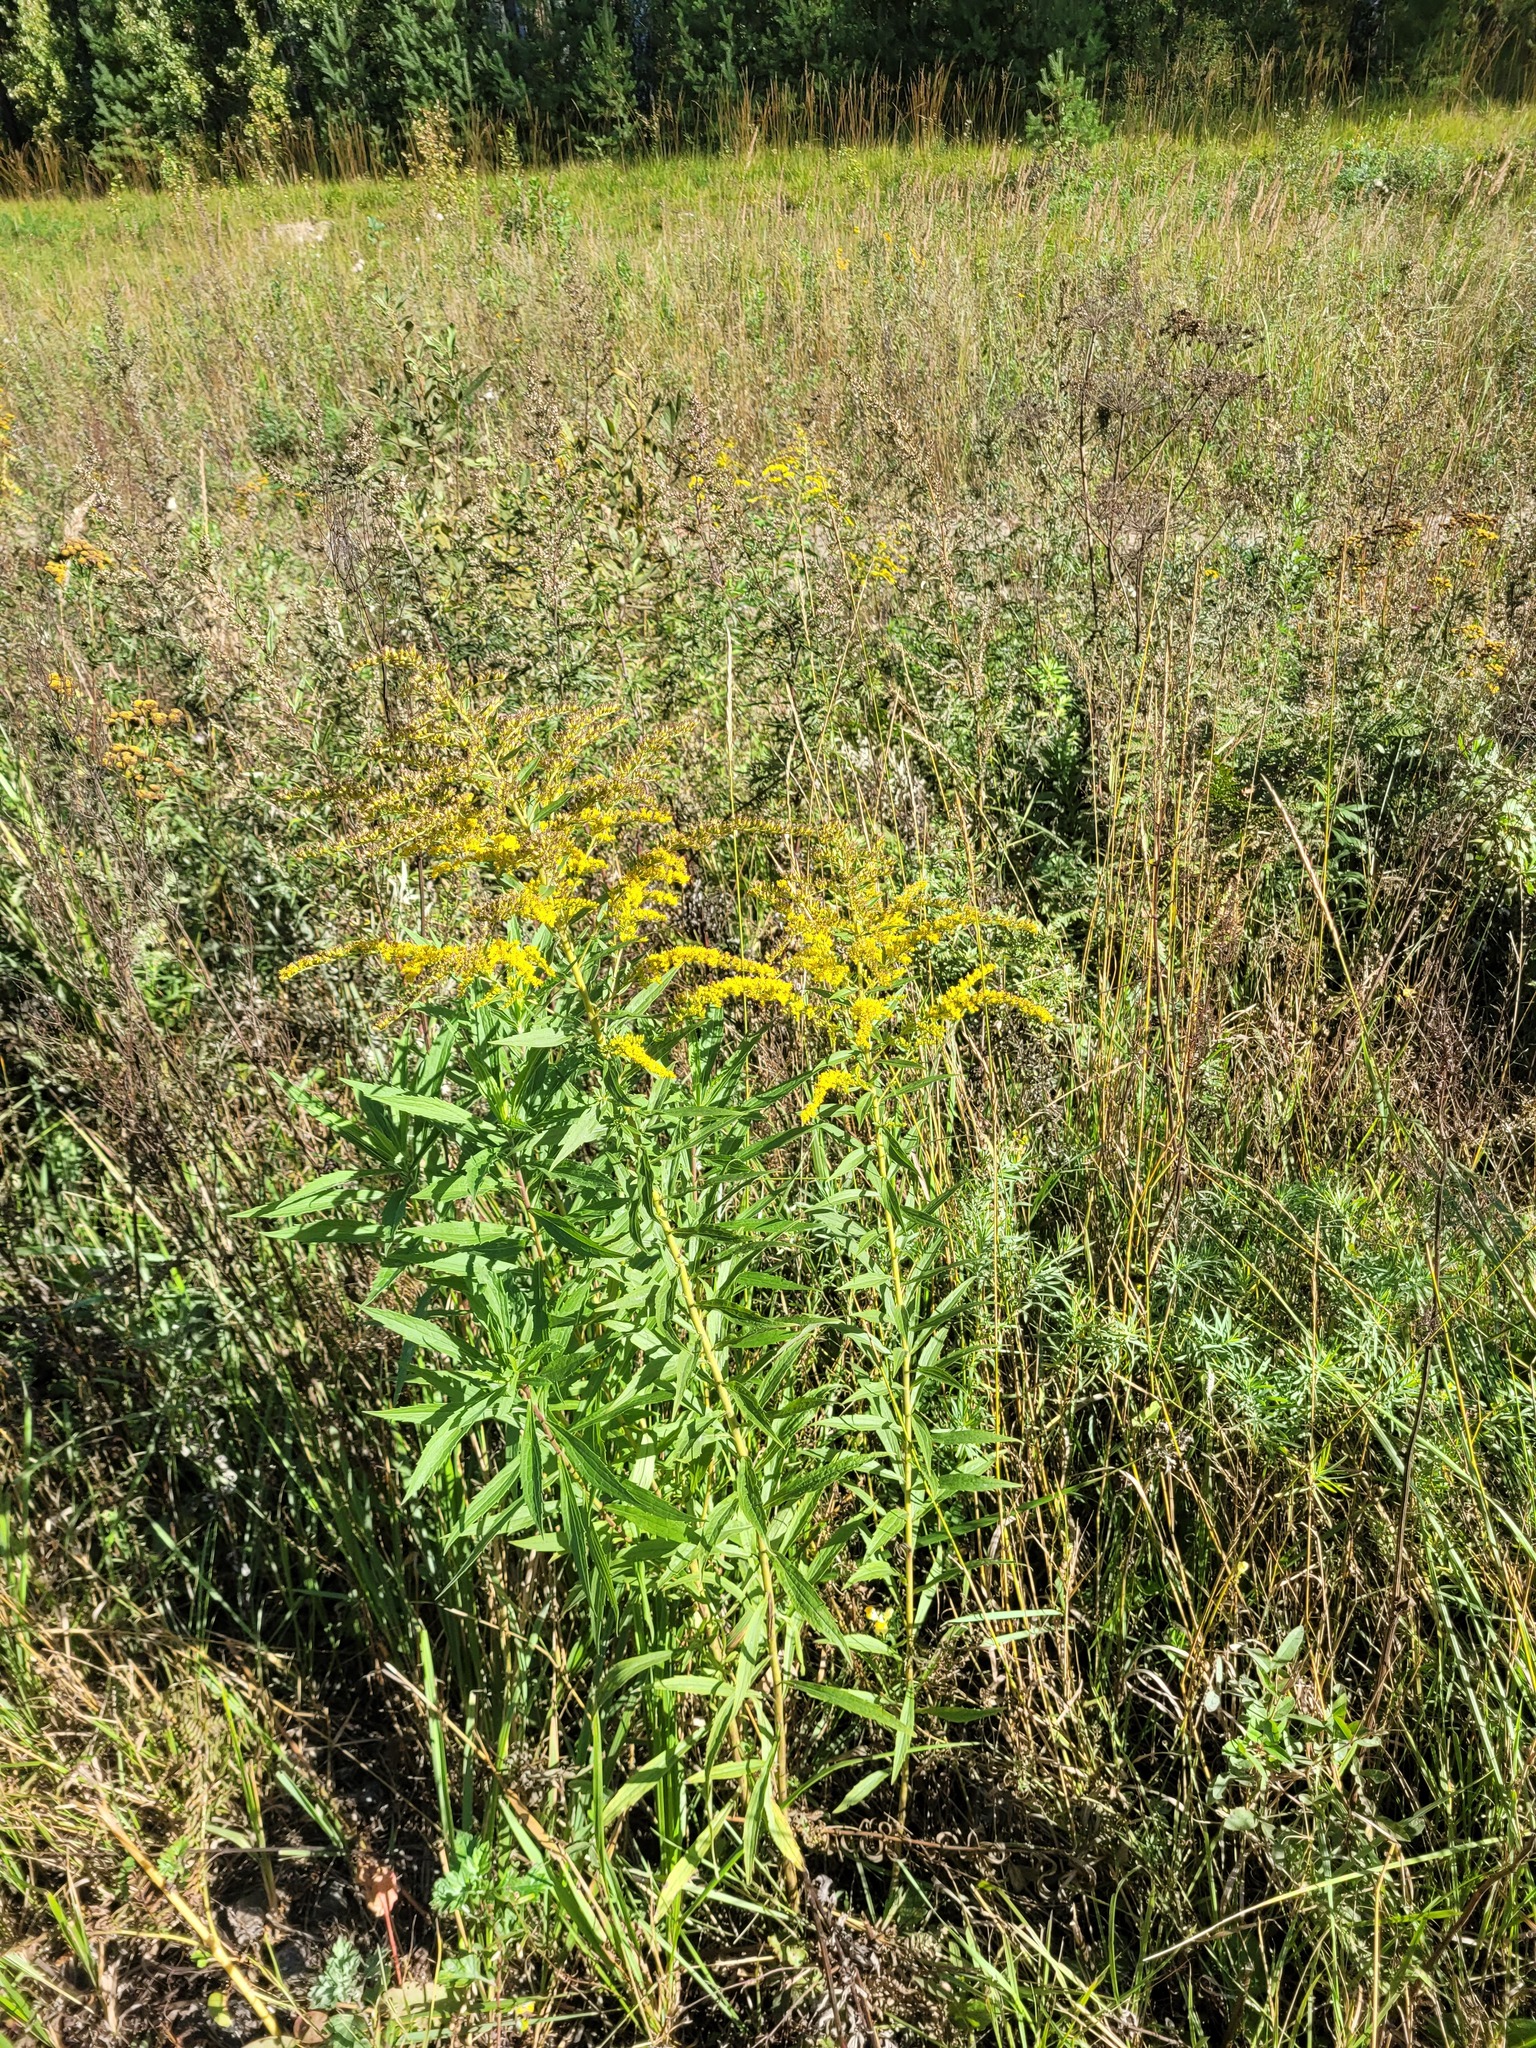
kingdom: Plantae
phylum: Tracheophyta
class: Magnoliopsida
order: Asterales
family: Asteraceae
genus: Solidago
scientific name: Solidago canadensis
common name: Canada goldenrod
